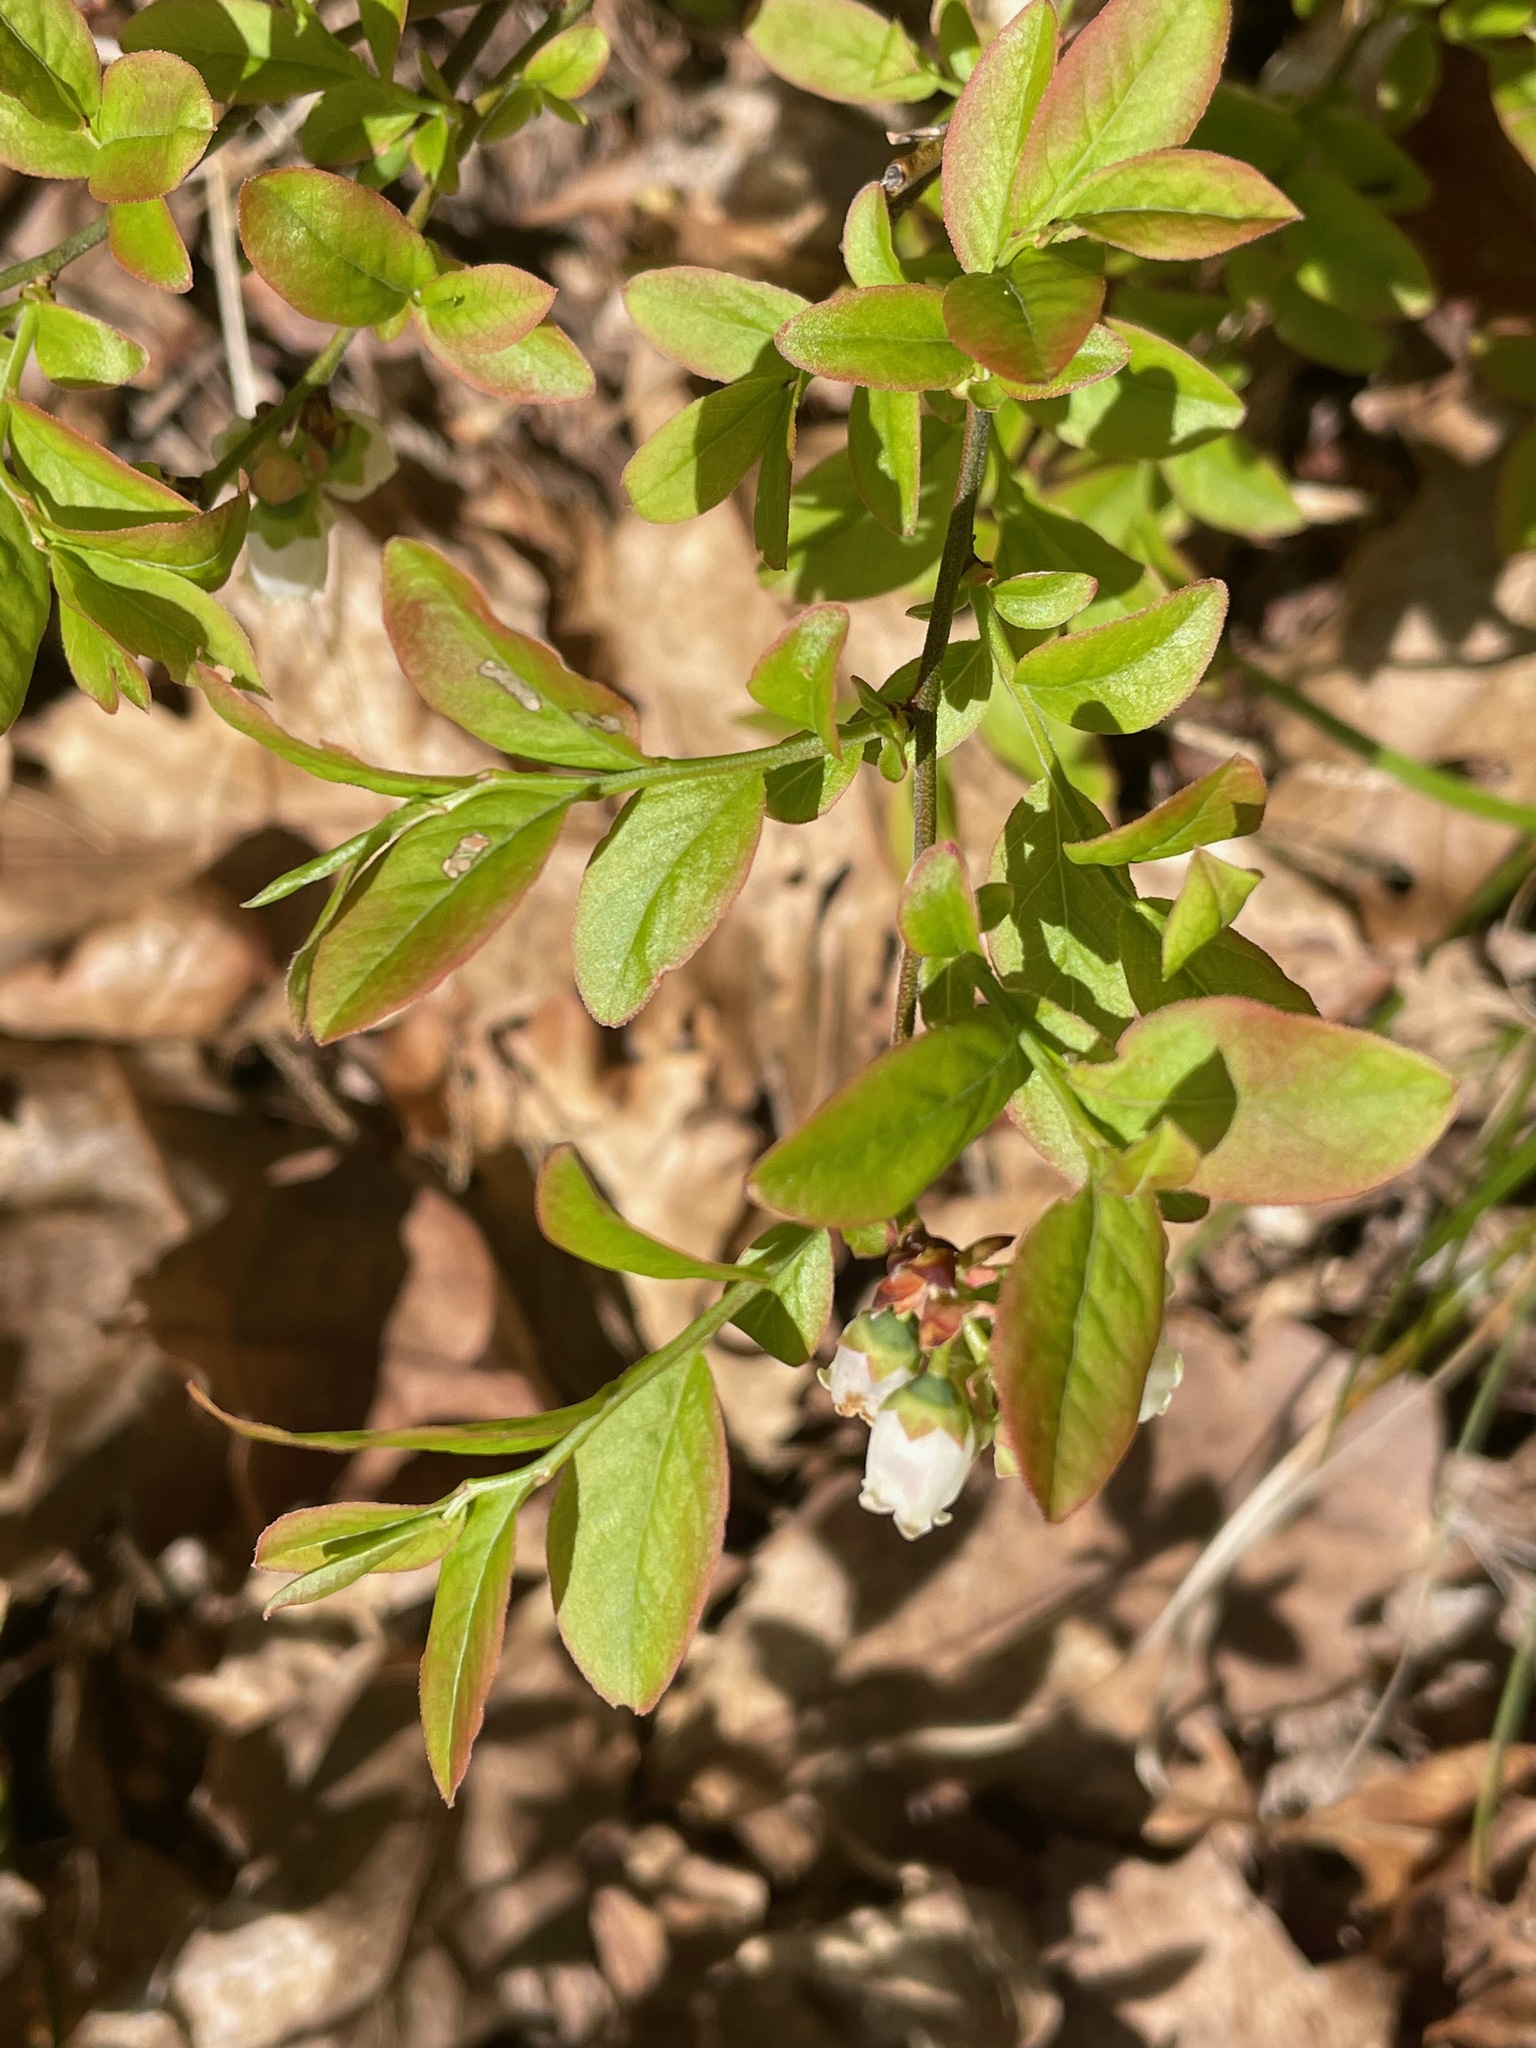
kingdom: Plantae
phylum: Tracheophyta
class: Magnoliopsida
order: Ericales
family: Ericaceae
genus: Vaccinium
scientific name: Vaccinium angustifolium
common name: Early lowbush blueberry
